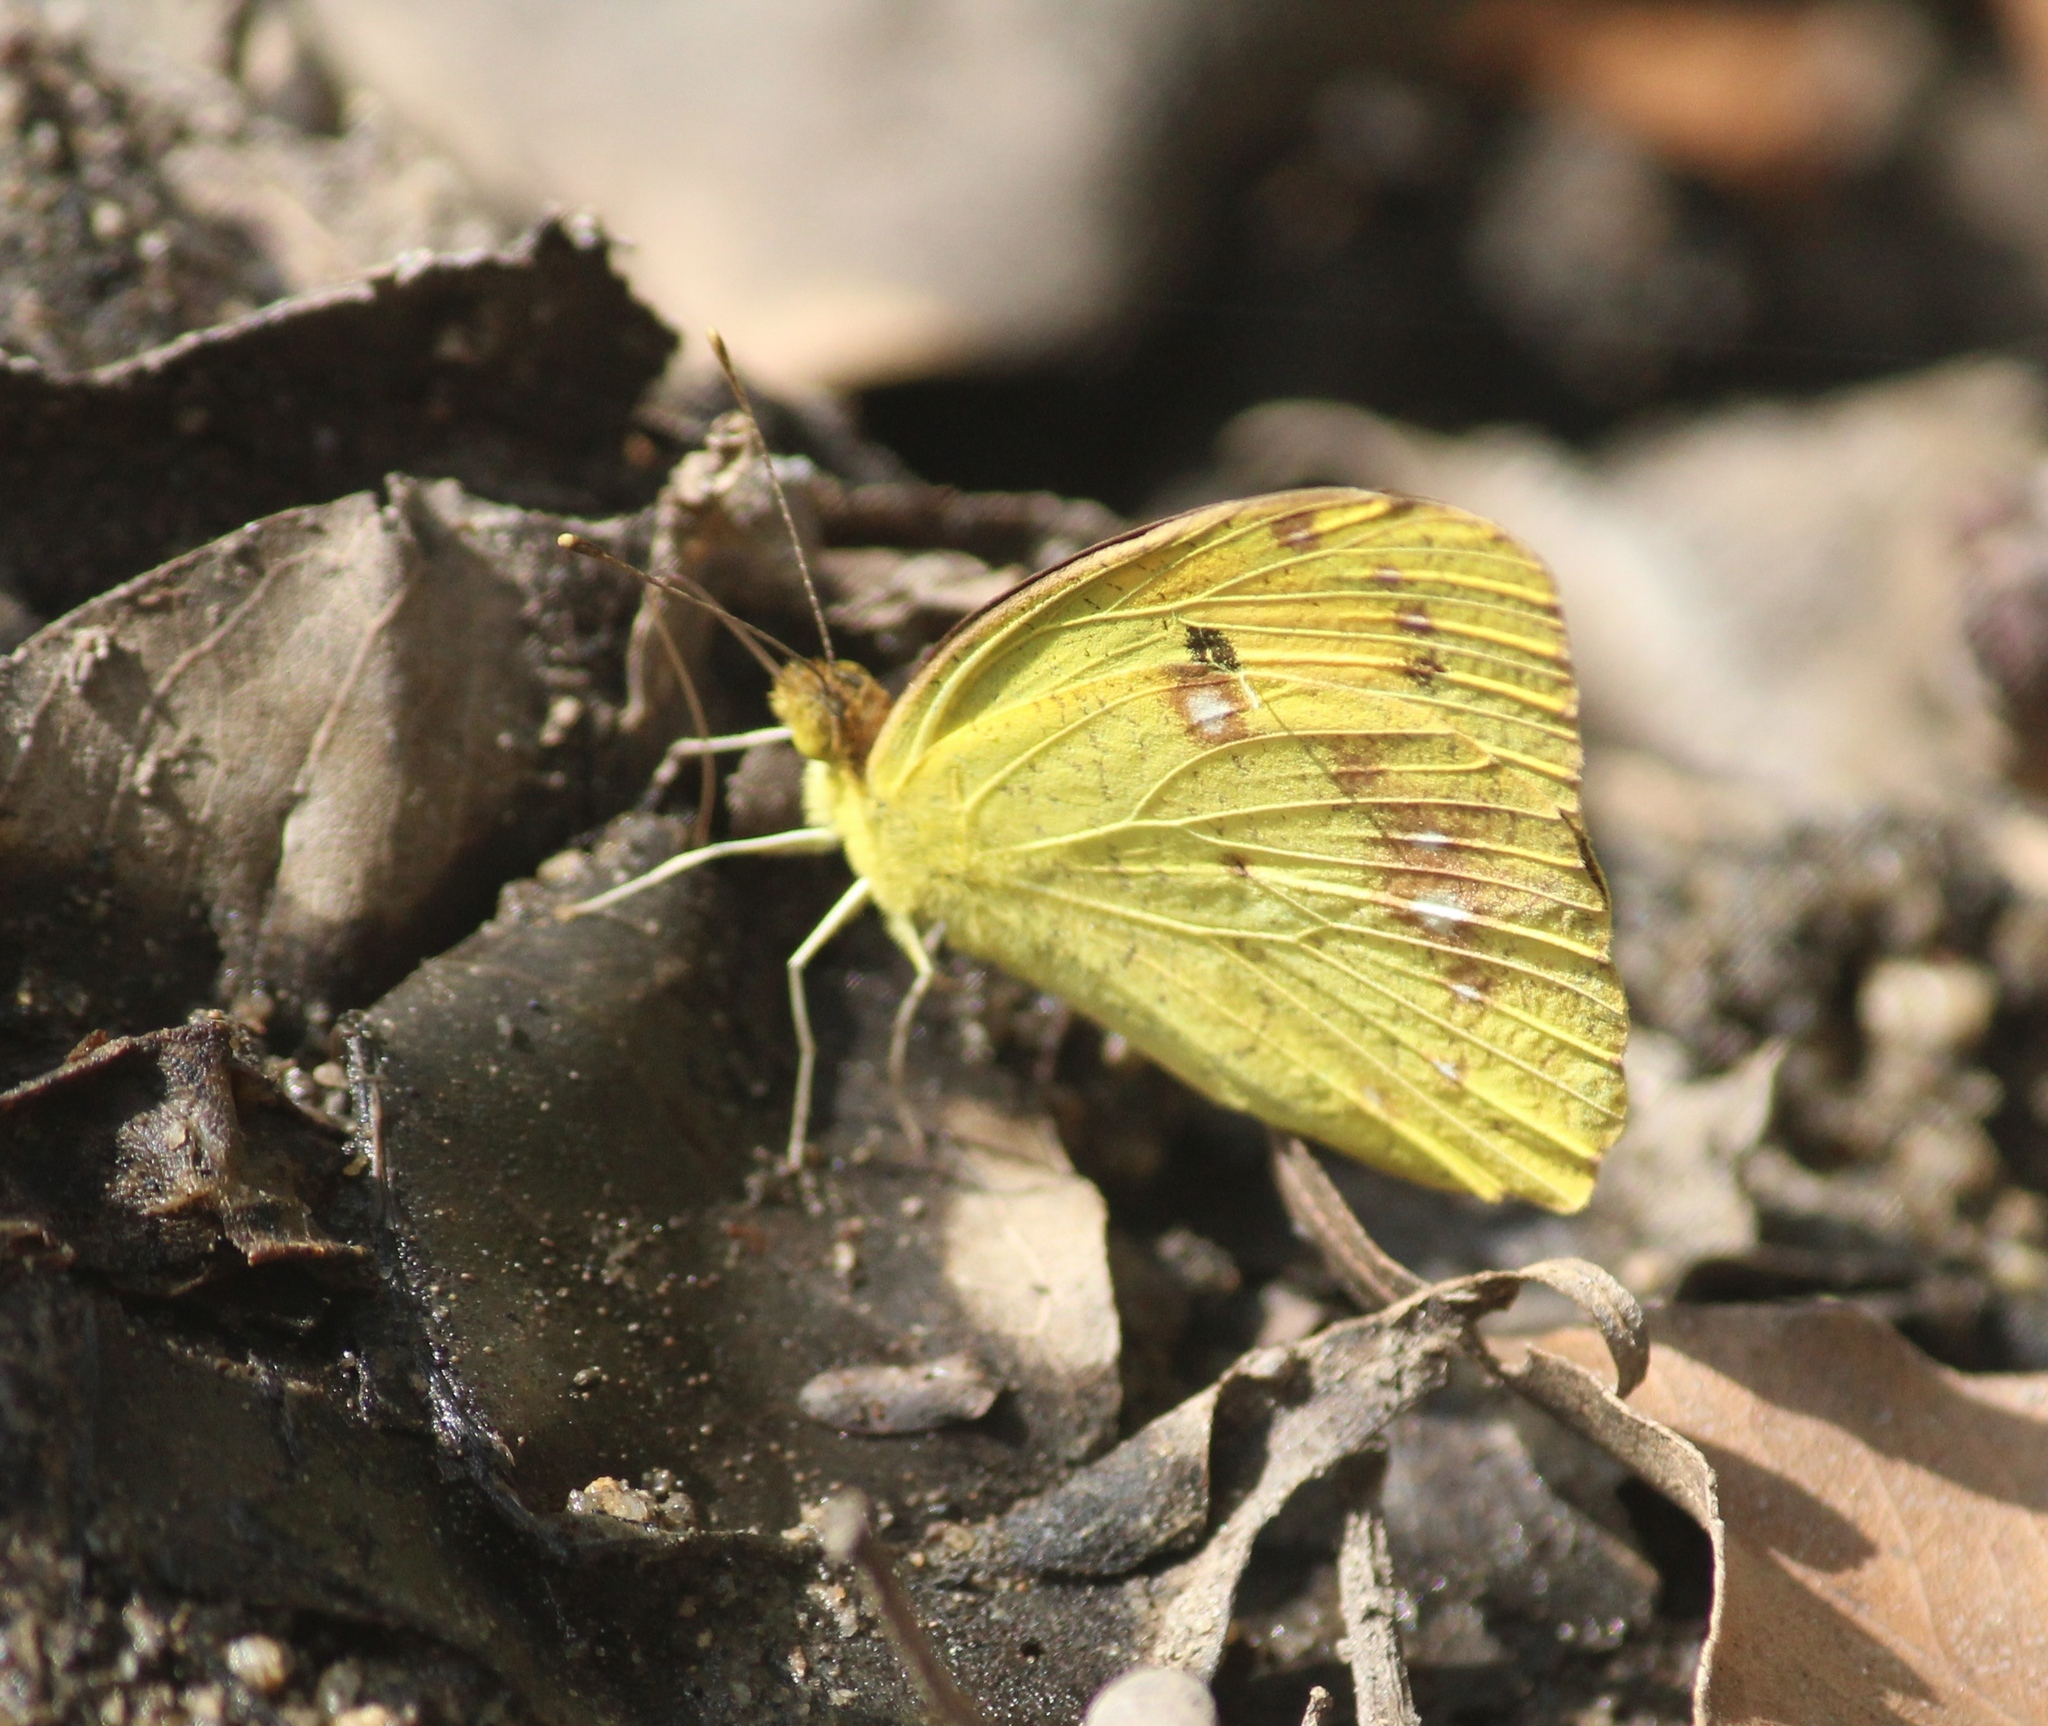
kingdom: Animalia
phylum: Arthropoda
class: Insecta
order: Lepidoptera
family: Pieridae
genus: Ixias
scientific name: Ixias pyrene
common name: Yellow orange tip
